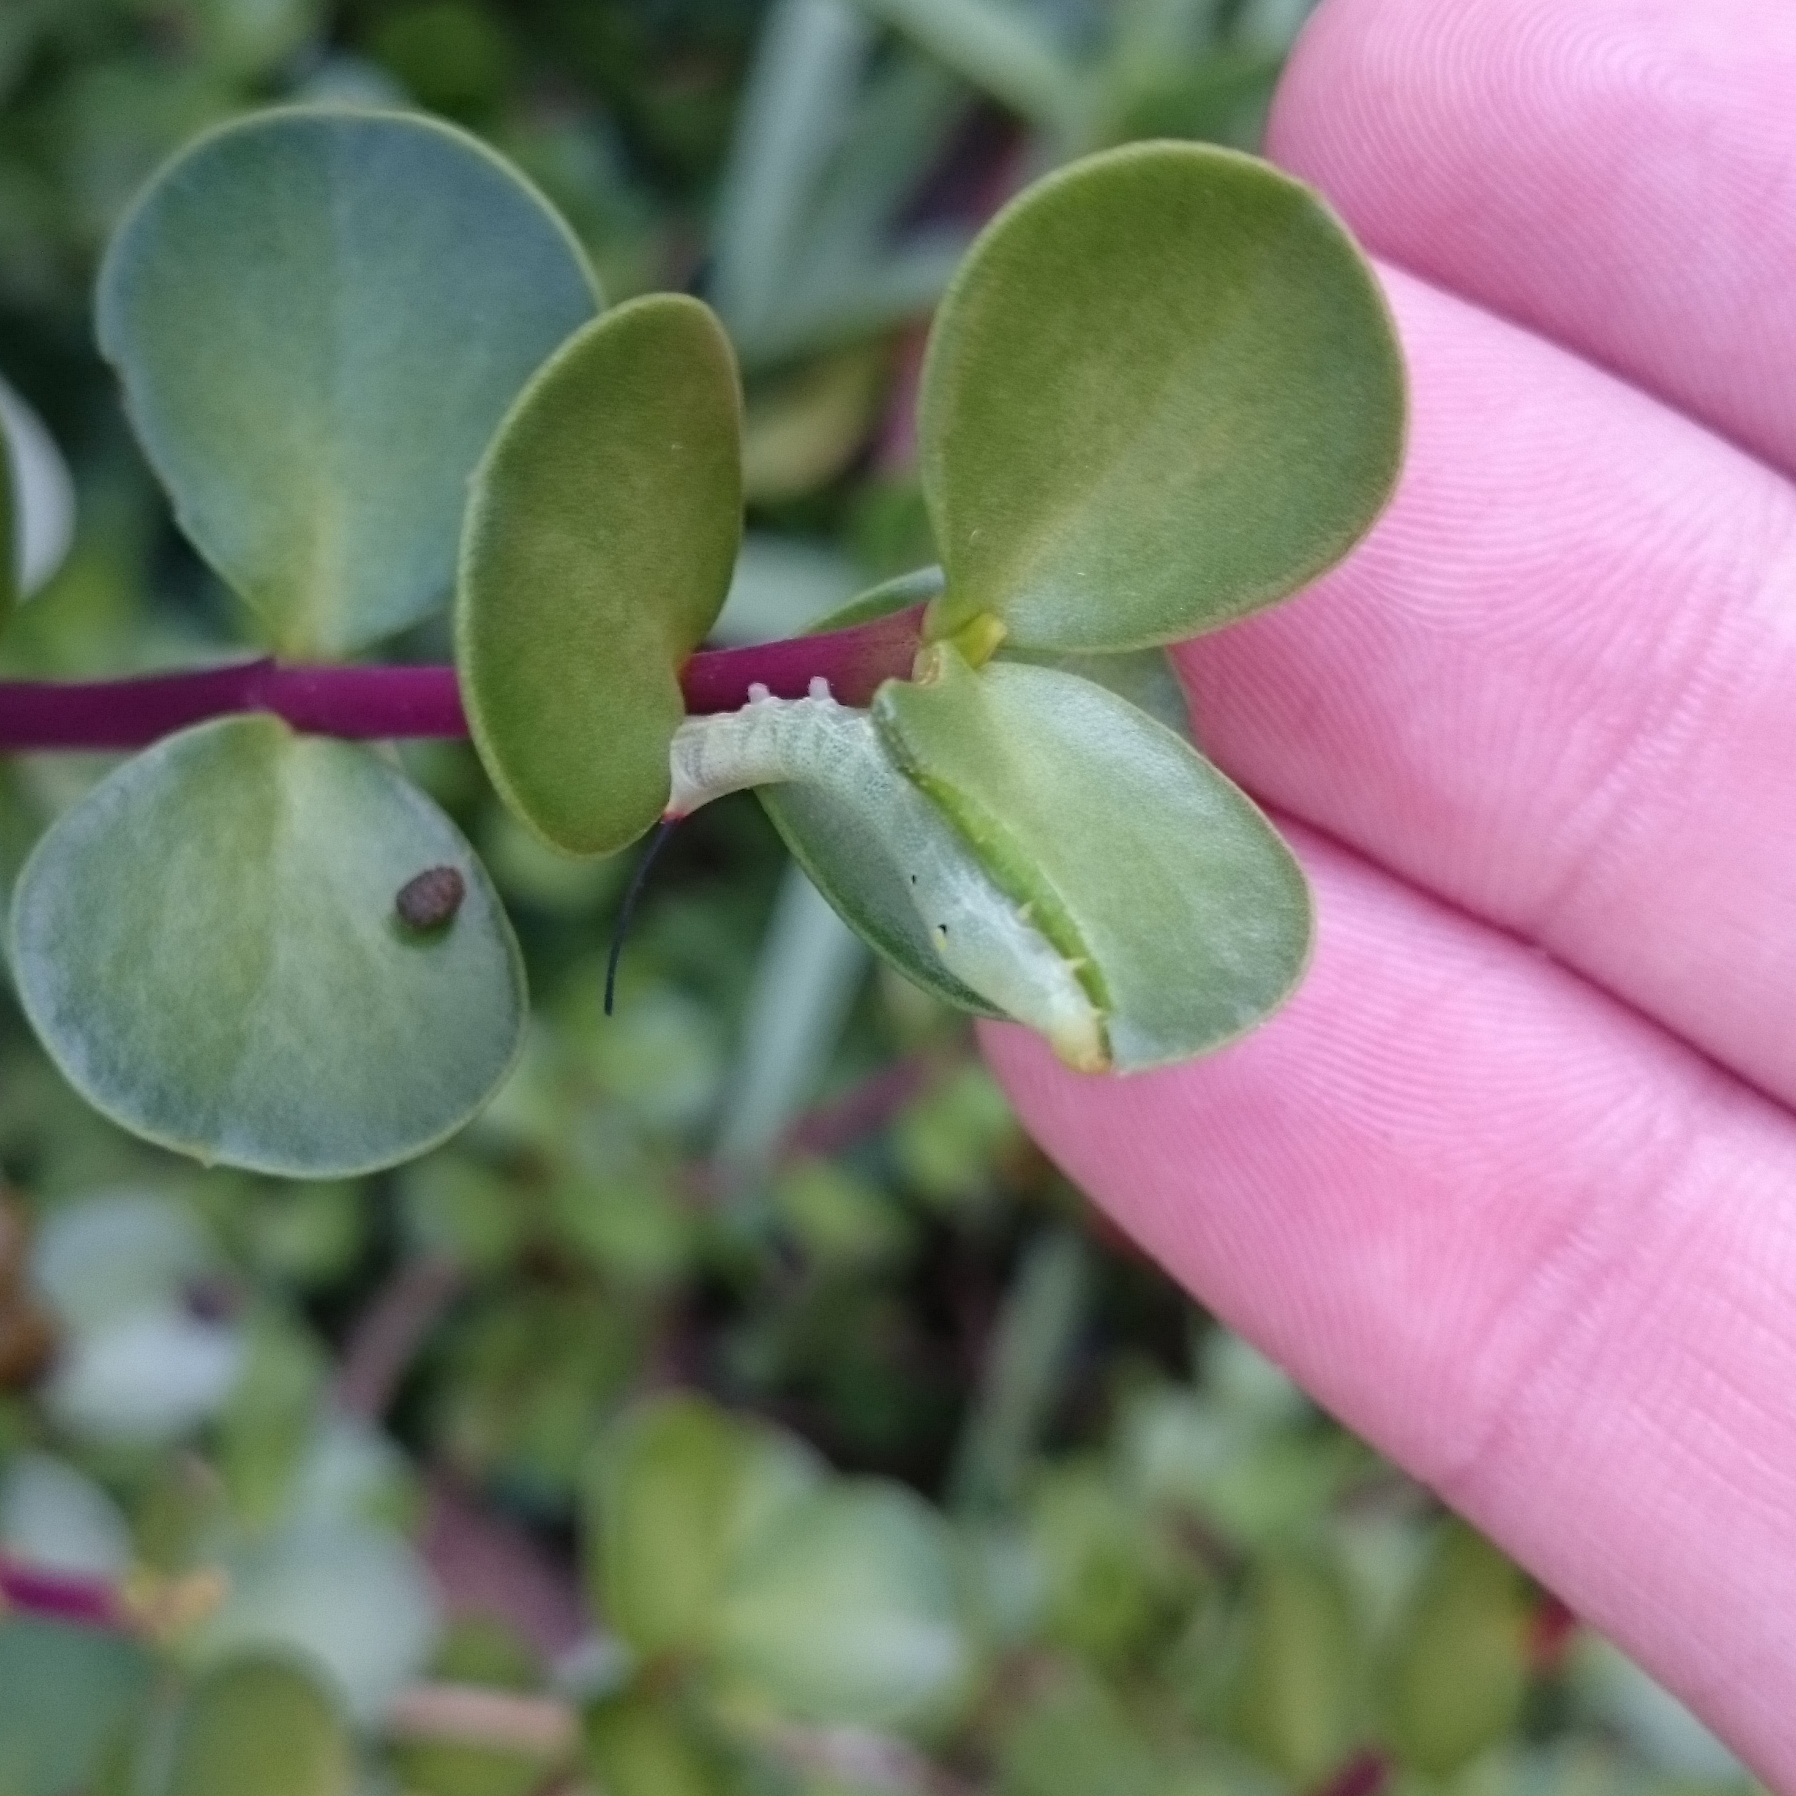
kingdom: Animalia
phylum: Arthropoda
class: Insecta
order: Lepidoptera
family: Sphingidae
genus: Hippotion
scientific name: Hippotion celerio
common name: Silver-striped hawk-moth
